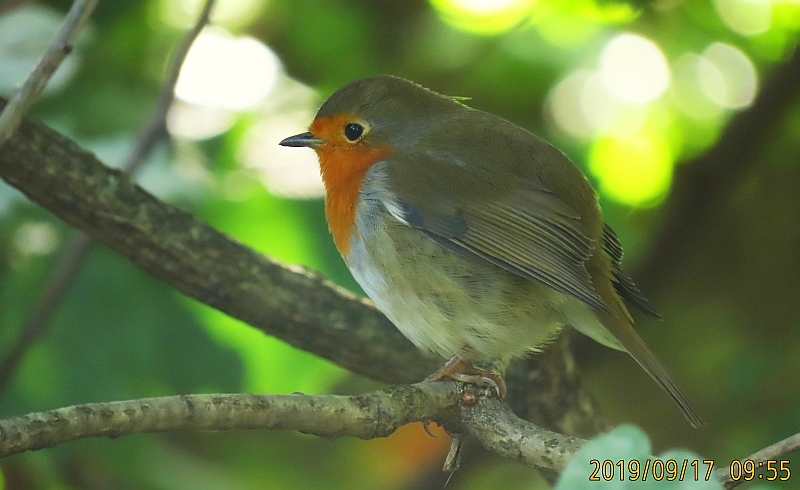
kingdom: Animalia
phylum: Chordata
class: Aves
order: Passeriformes
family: Muscicapidae
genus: Erithacus
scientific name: Erithacus rubecula
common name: European robin
